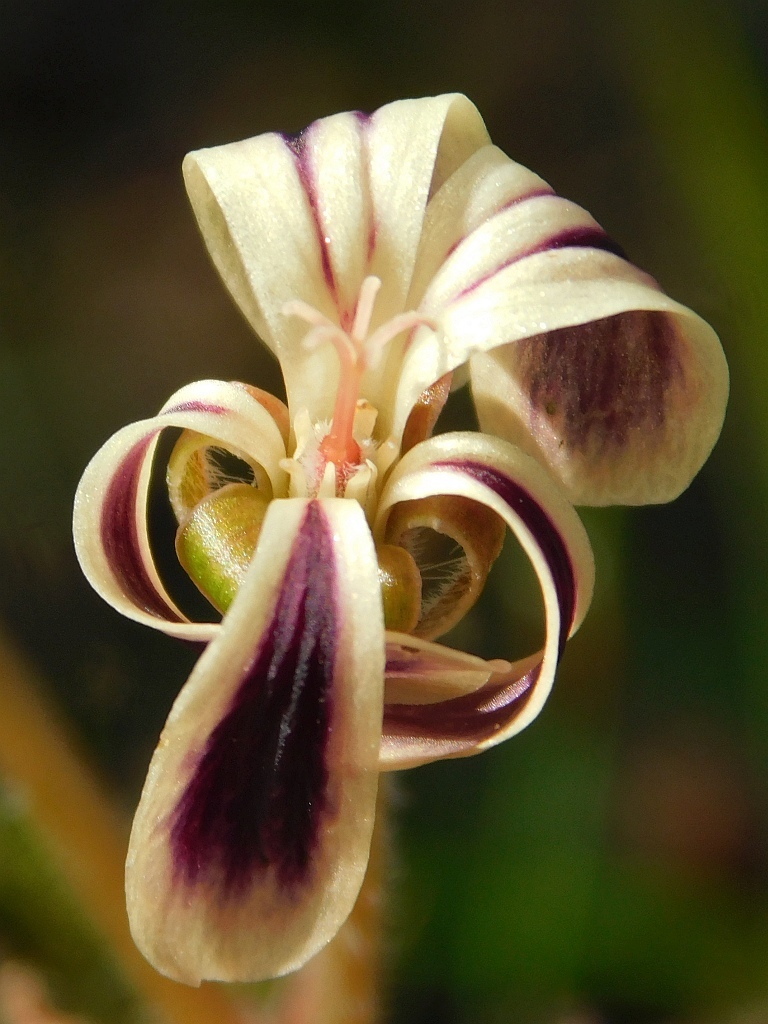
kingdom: Plantae
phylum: Tracheophyta
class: Magnoliopsida
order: Geraniales
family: Geraniaceae
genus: Pelargonium
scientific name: Pelargonium triste
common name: Night-scent pelargonium
